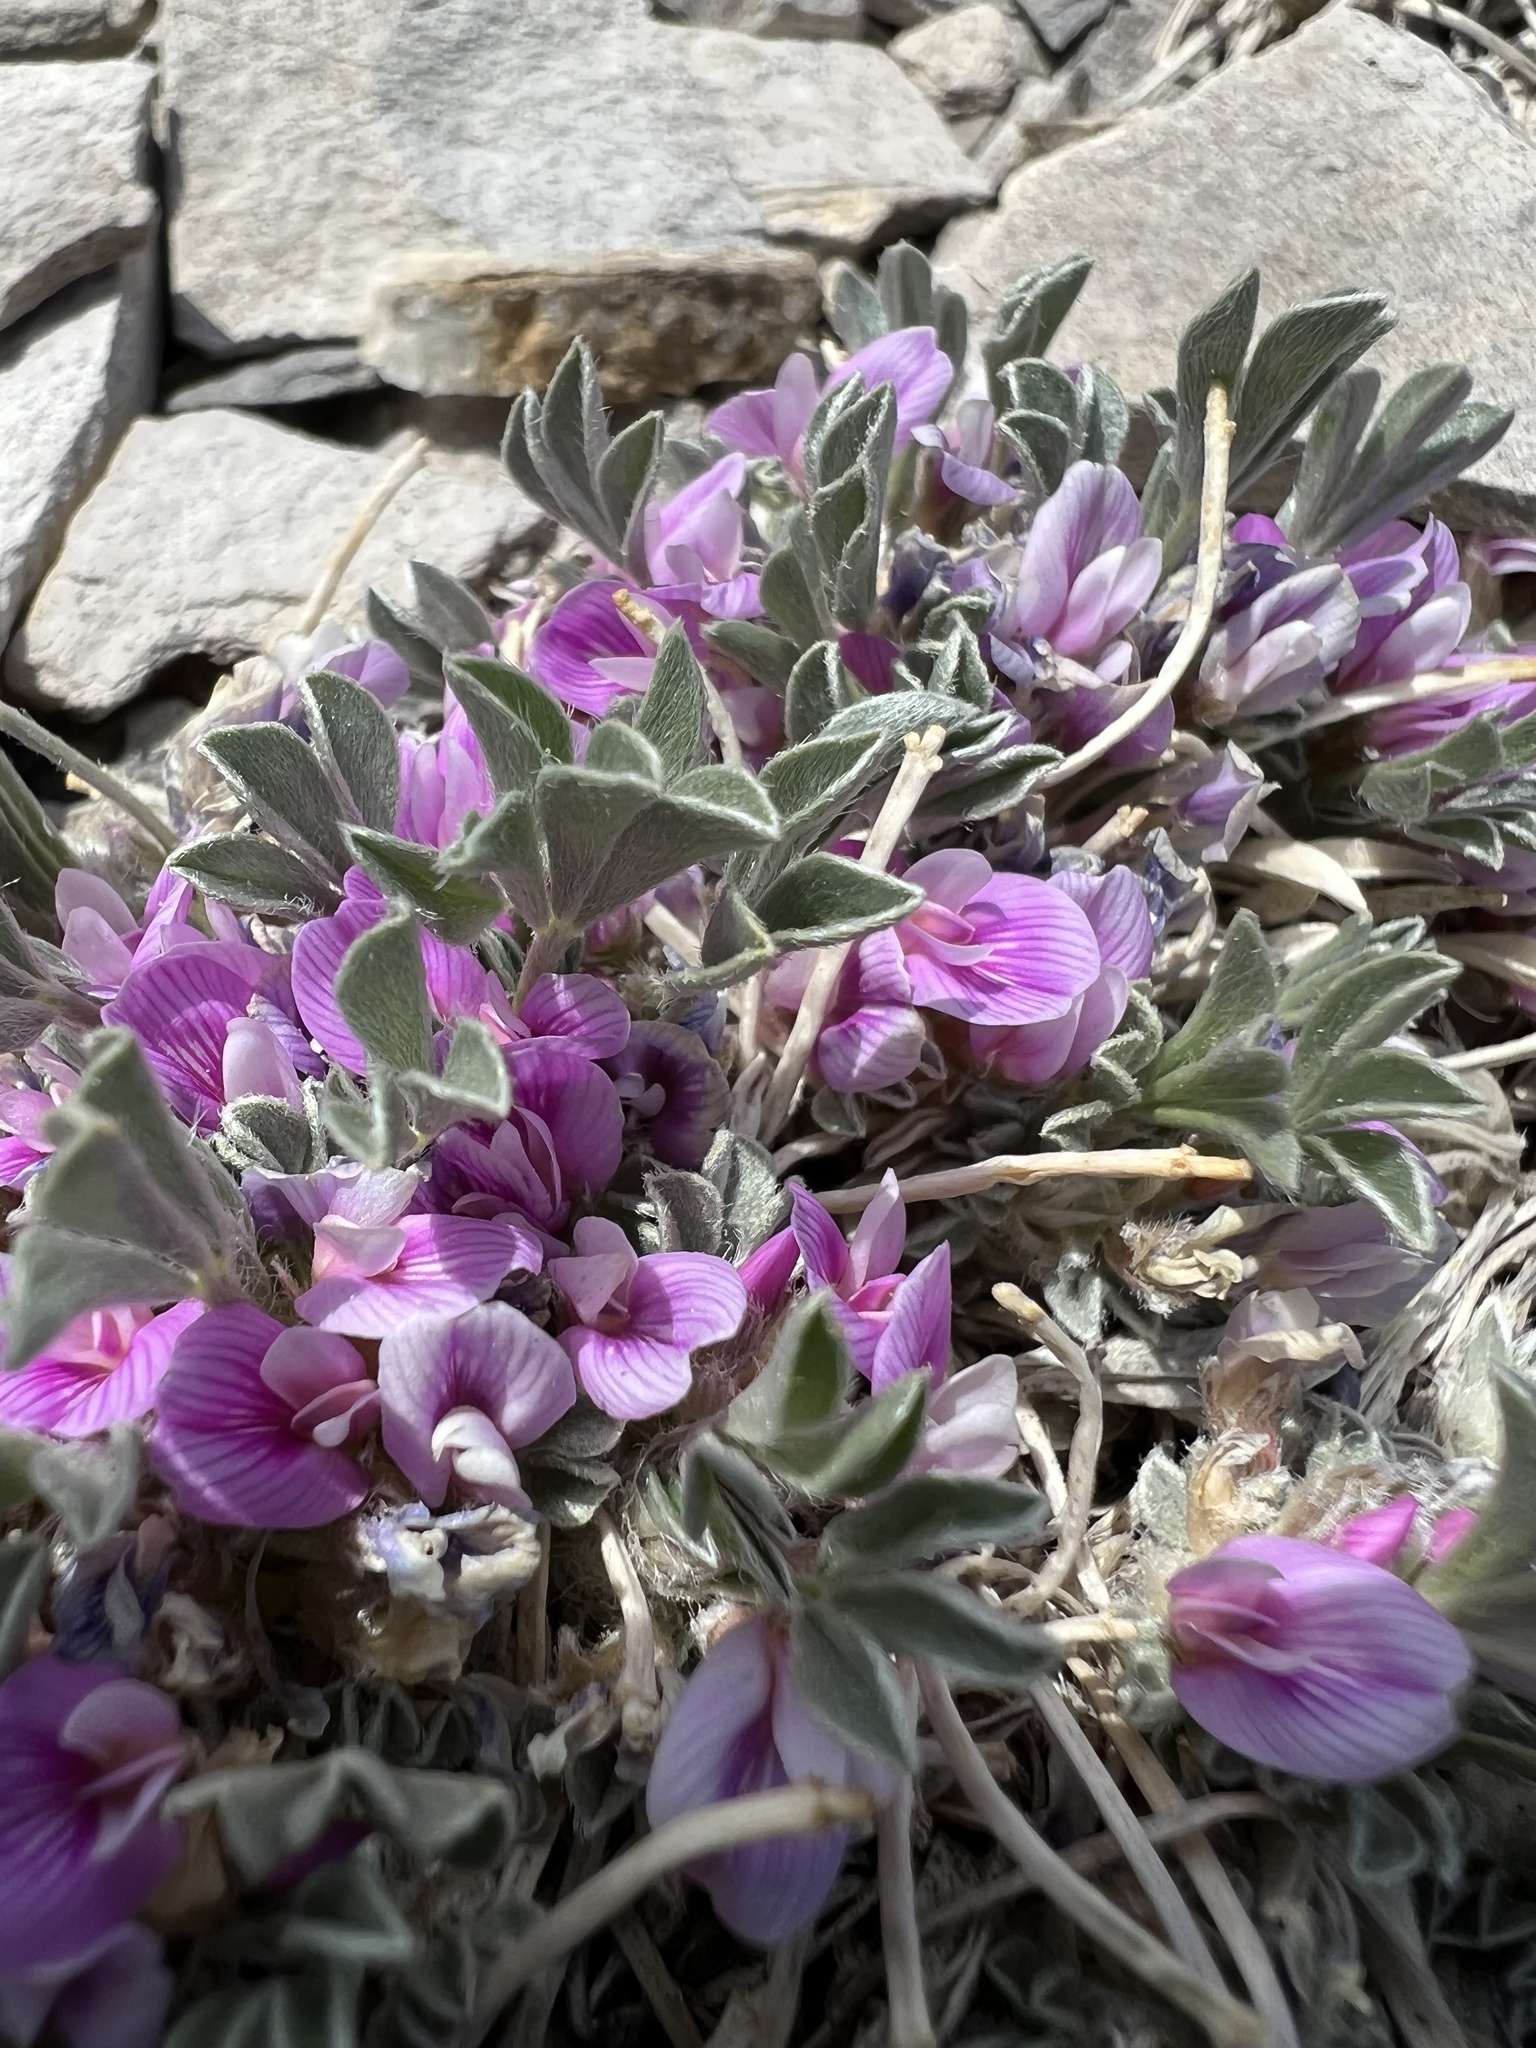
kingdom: Plantae
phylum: Tracheophyta
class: Magnoliopsida
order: Fabales
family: Fabaceae
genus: Astragalus
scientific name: Astragalus tridactylicus
